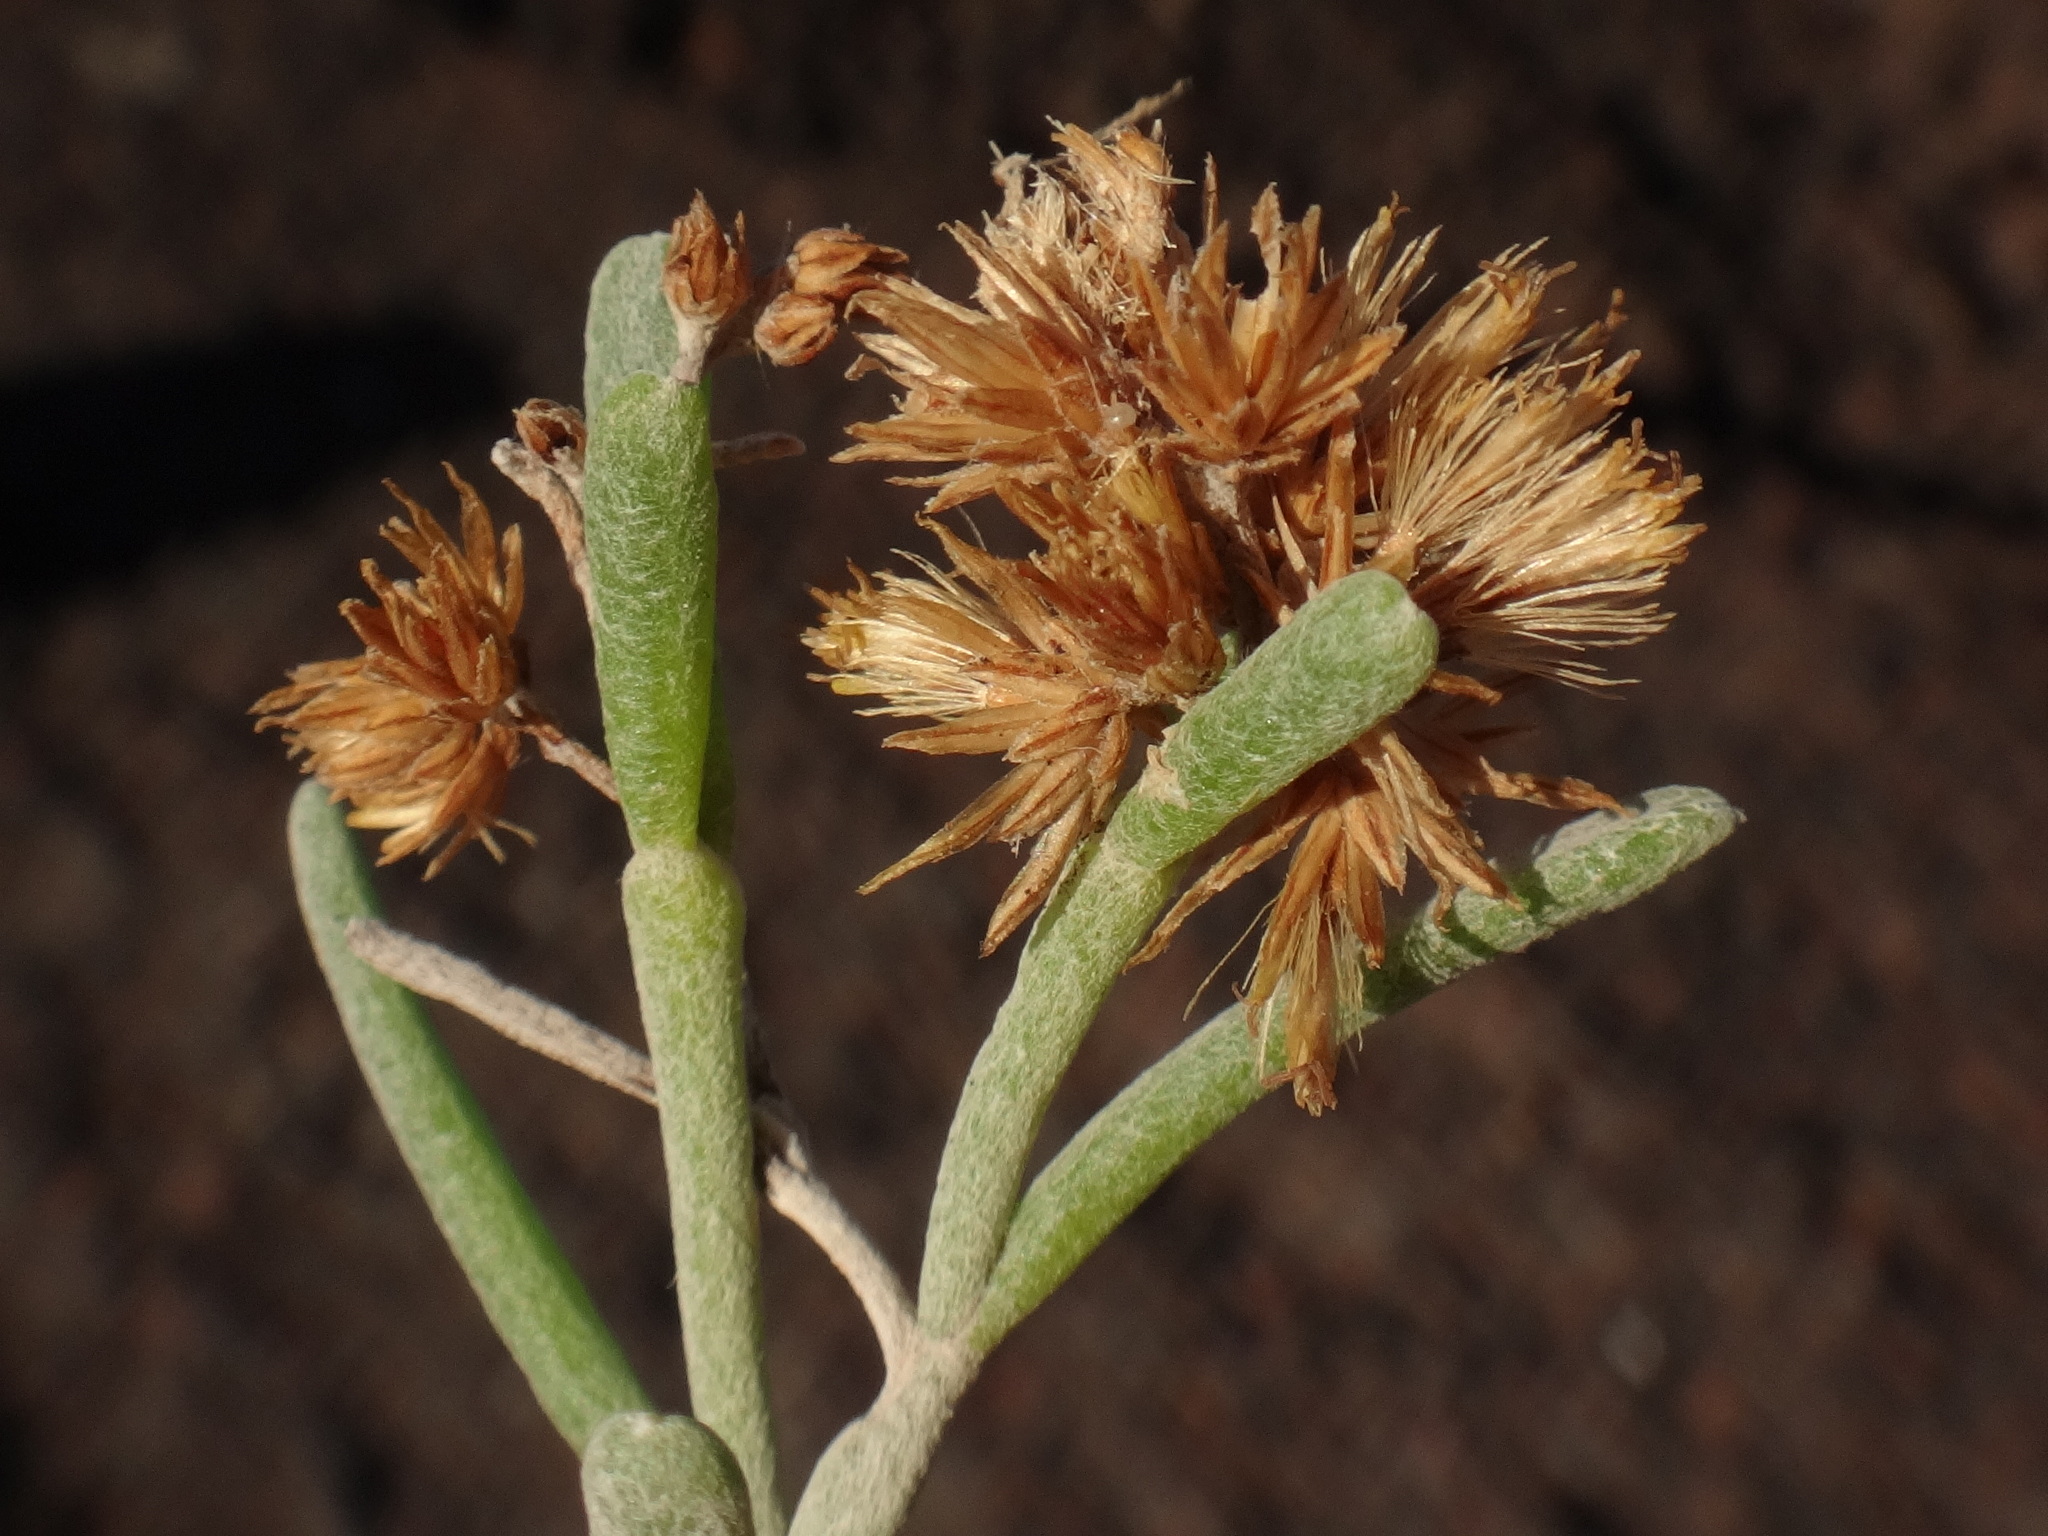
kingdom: Plantae
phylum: Tracheophyta
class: Magnoliopsida
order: Asterales
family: Asteraceae
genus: Schizogyne
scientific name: Schizogyne sericea
